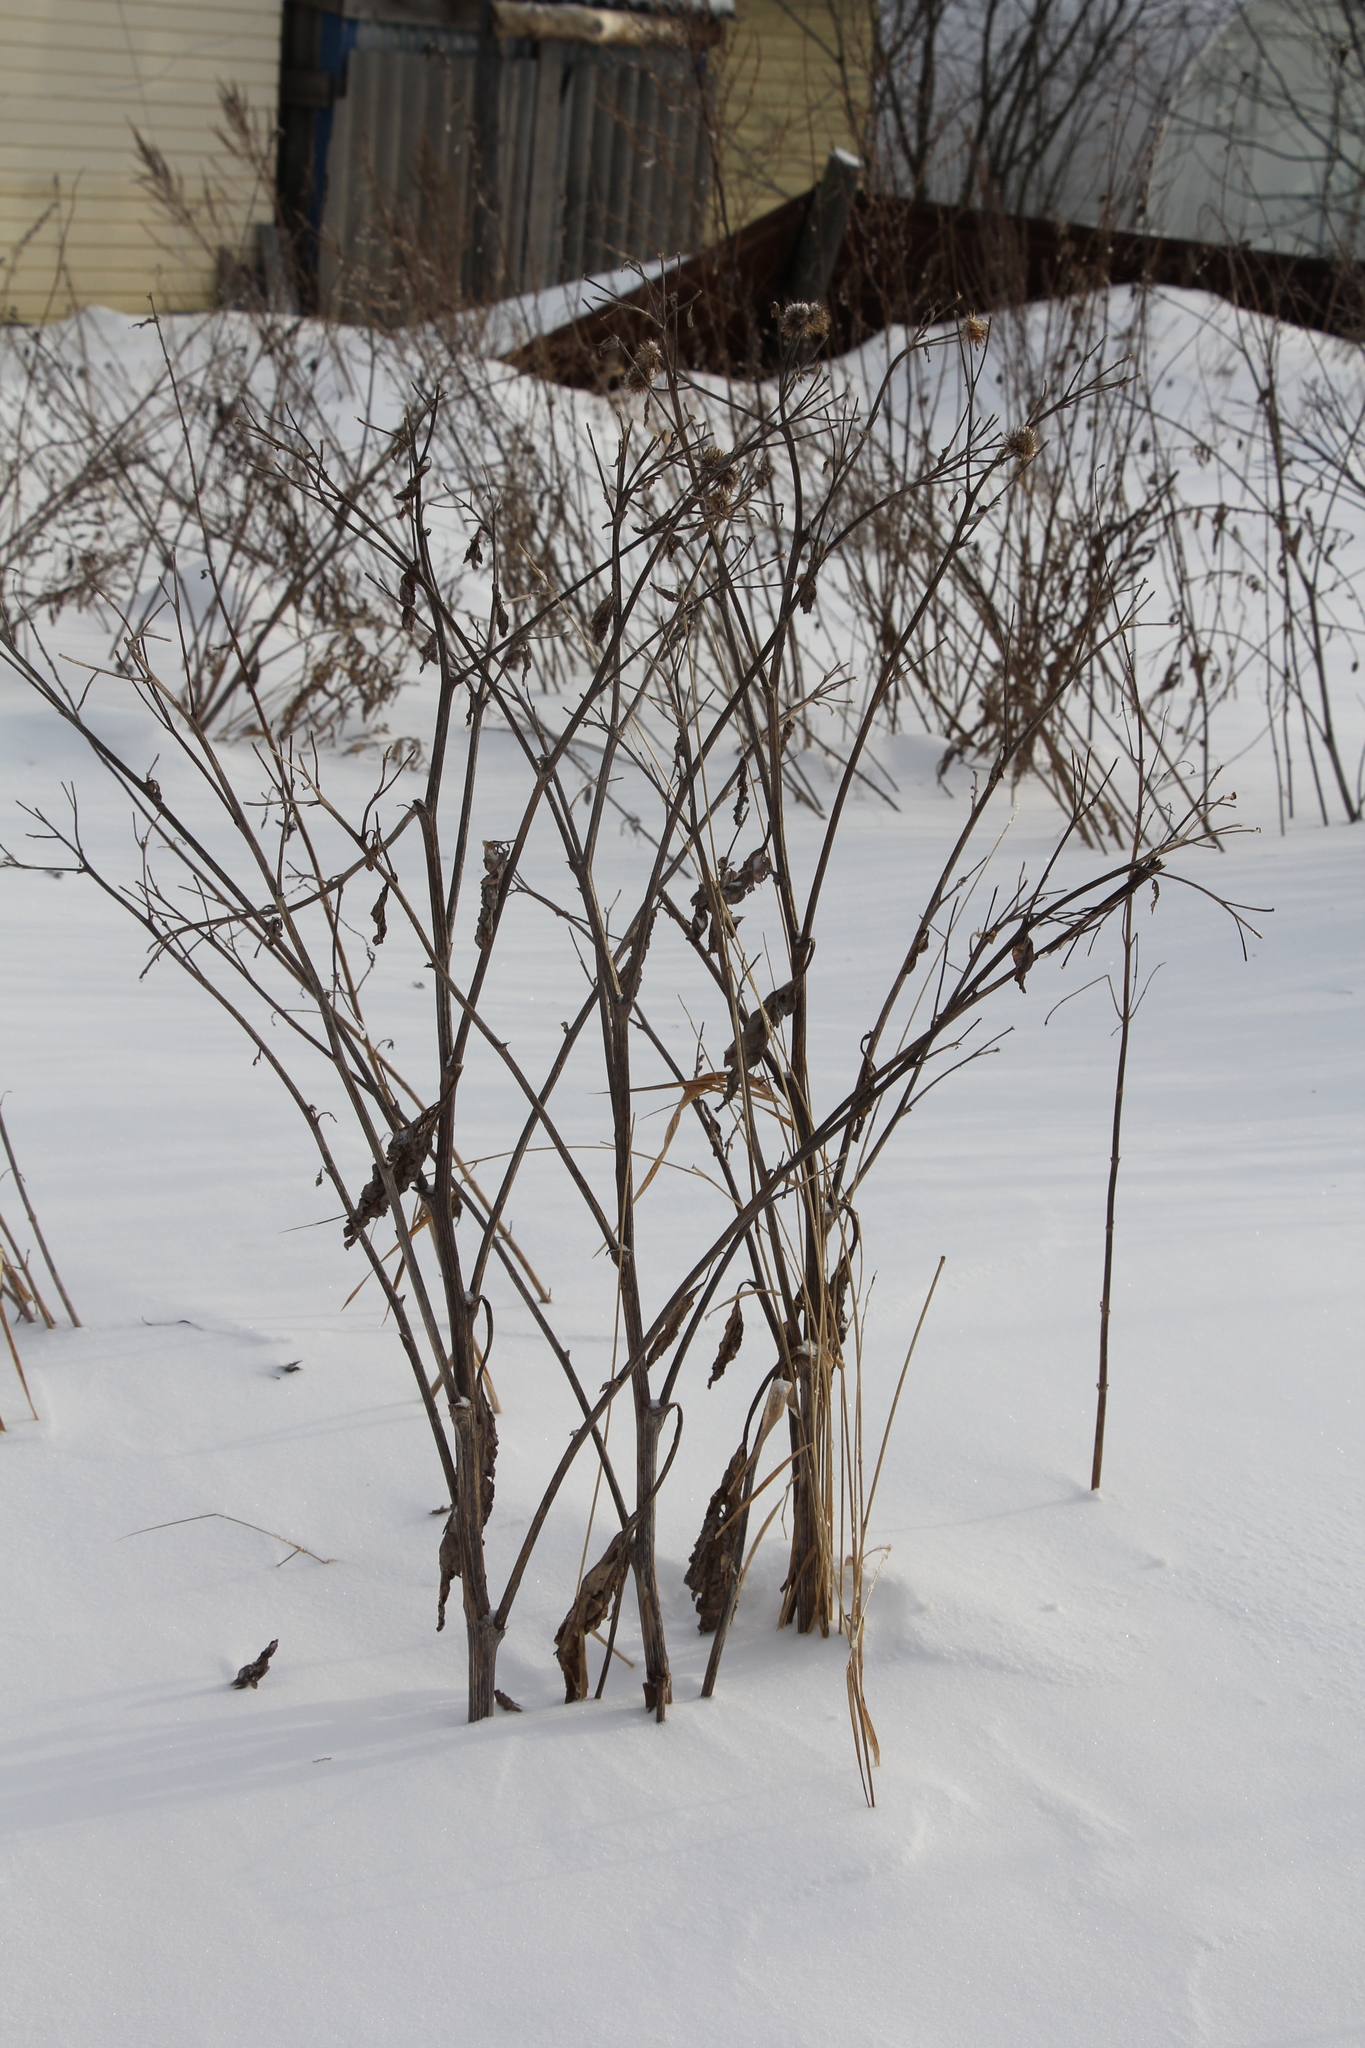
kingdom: Plantae
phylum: Tracheophyta
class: Magnoliopsida
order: Asterales
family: Asteraceae
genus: Arctium
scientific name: Arctium tomentosum
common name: Woolly burdock
